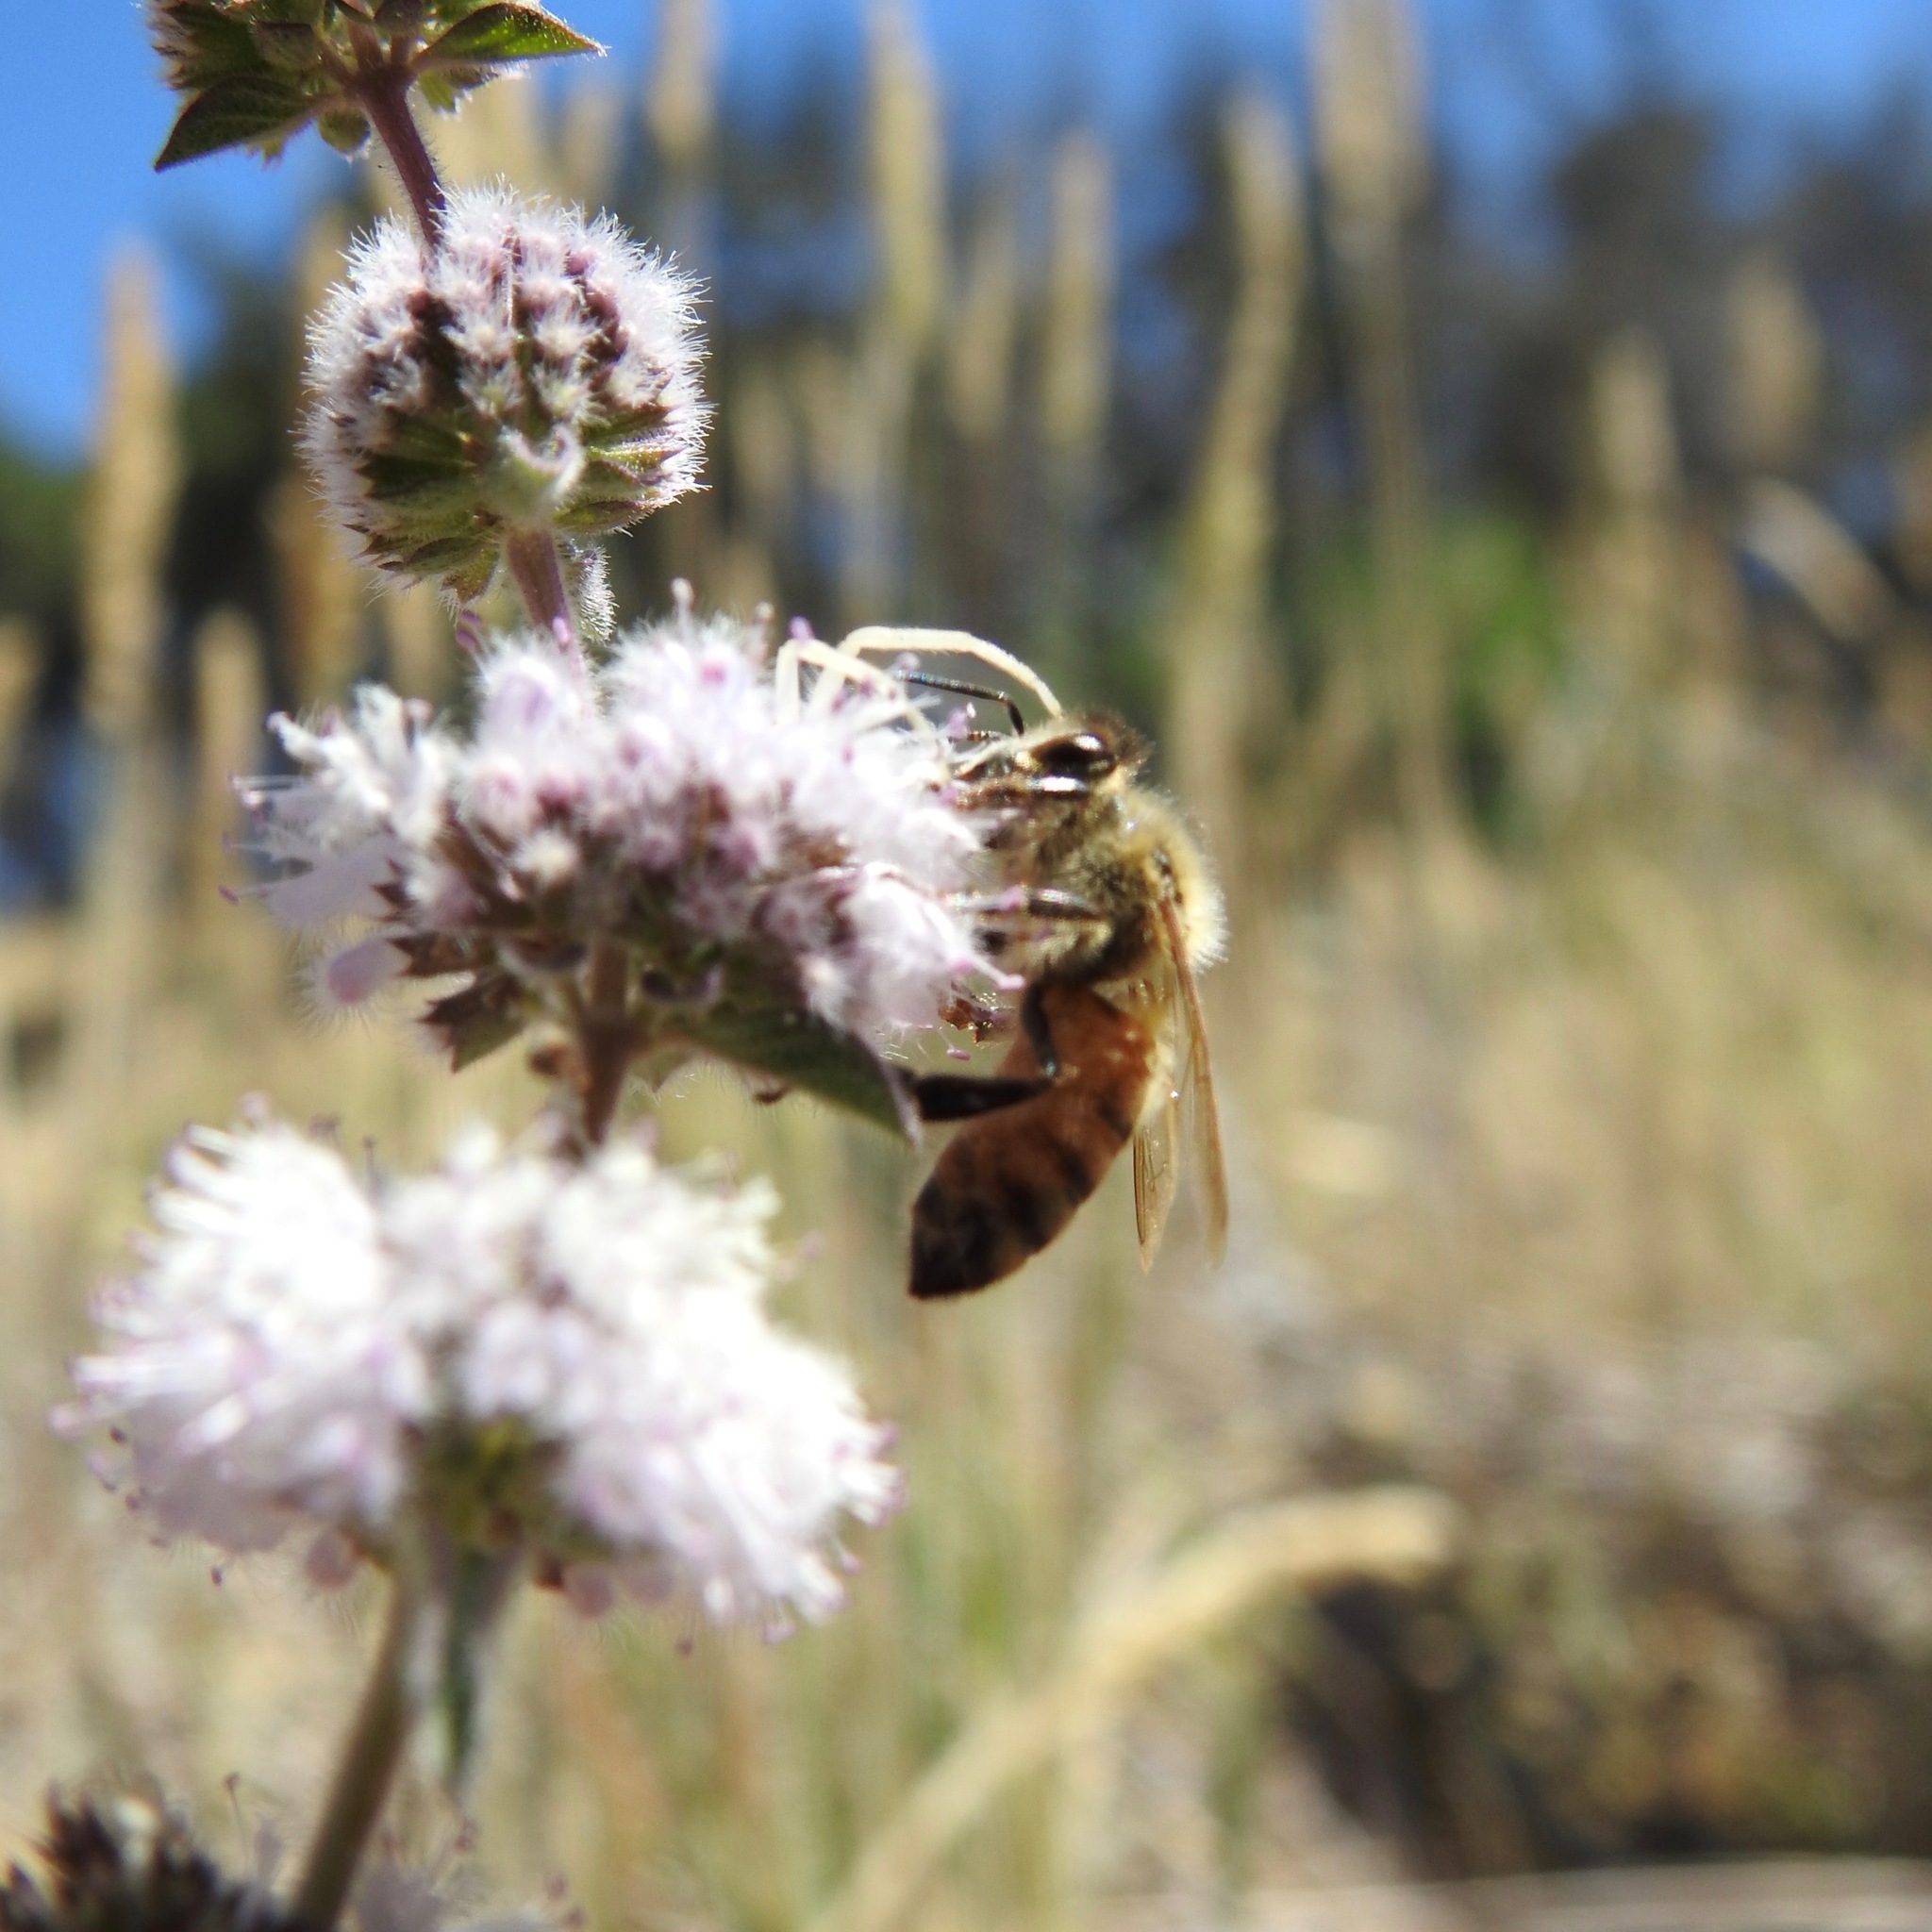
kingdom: Plantae
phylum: Tracheophyta
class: Magnoliopsida
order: Lamiales
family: Lamiaceae
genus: Mentha
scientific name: Mentha pulegium
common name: Pennyroyal
